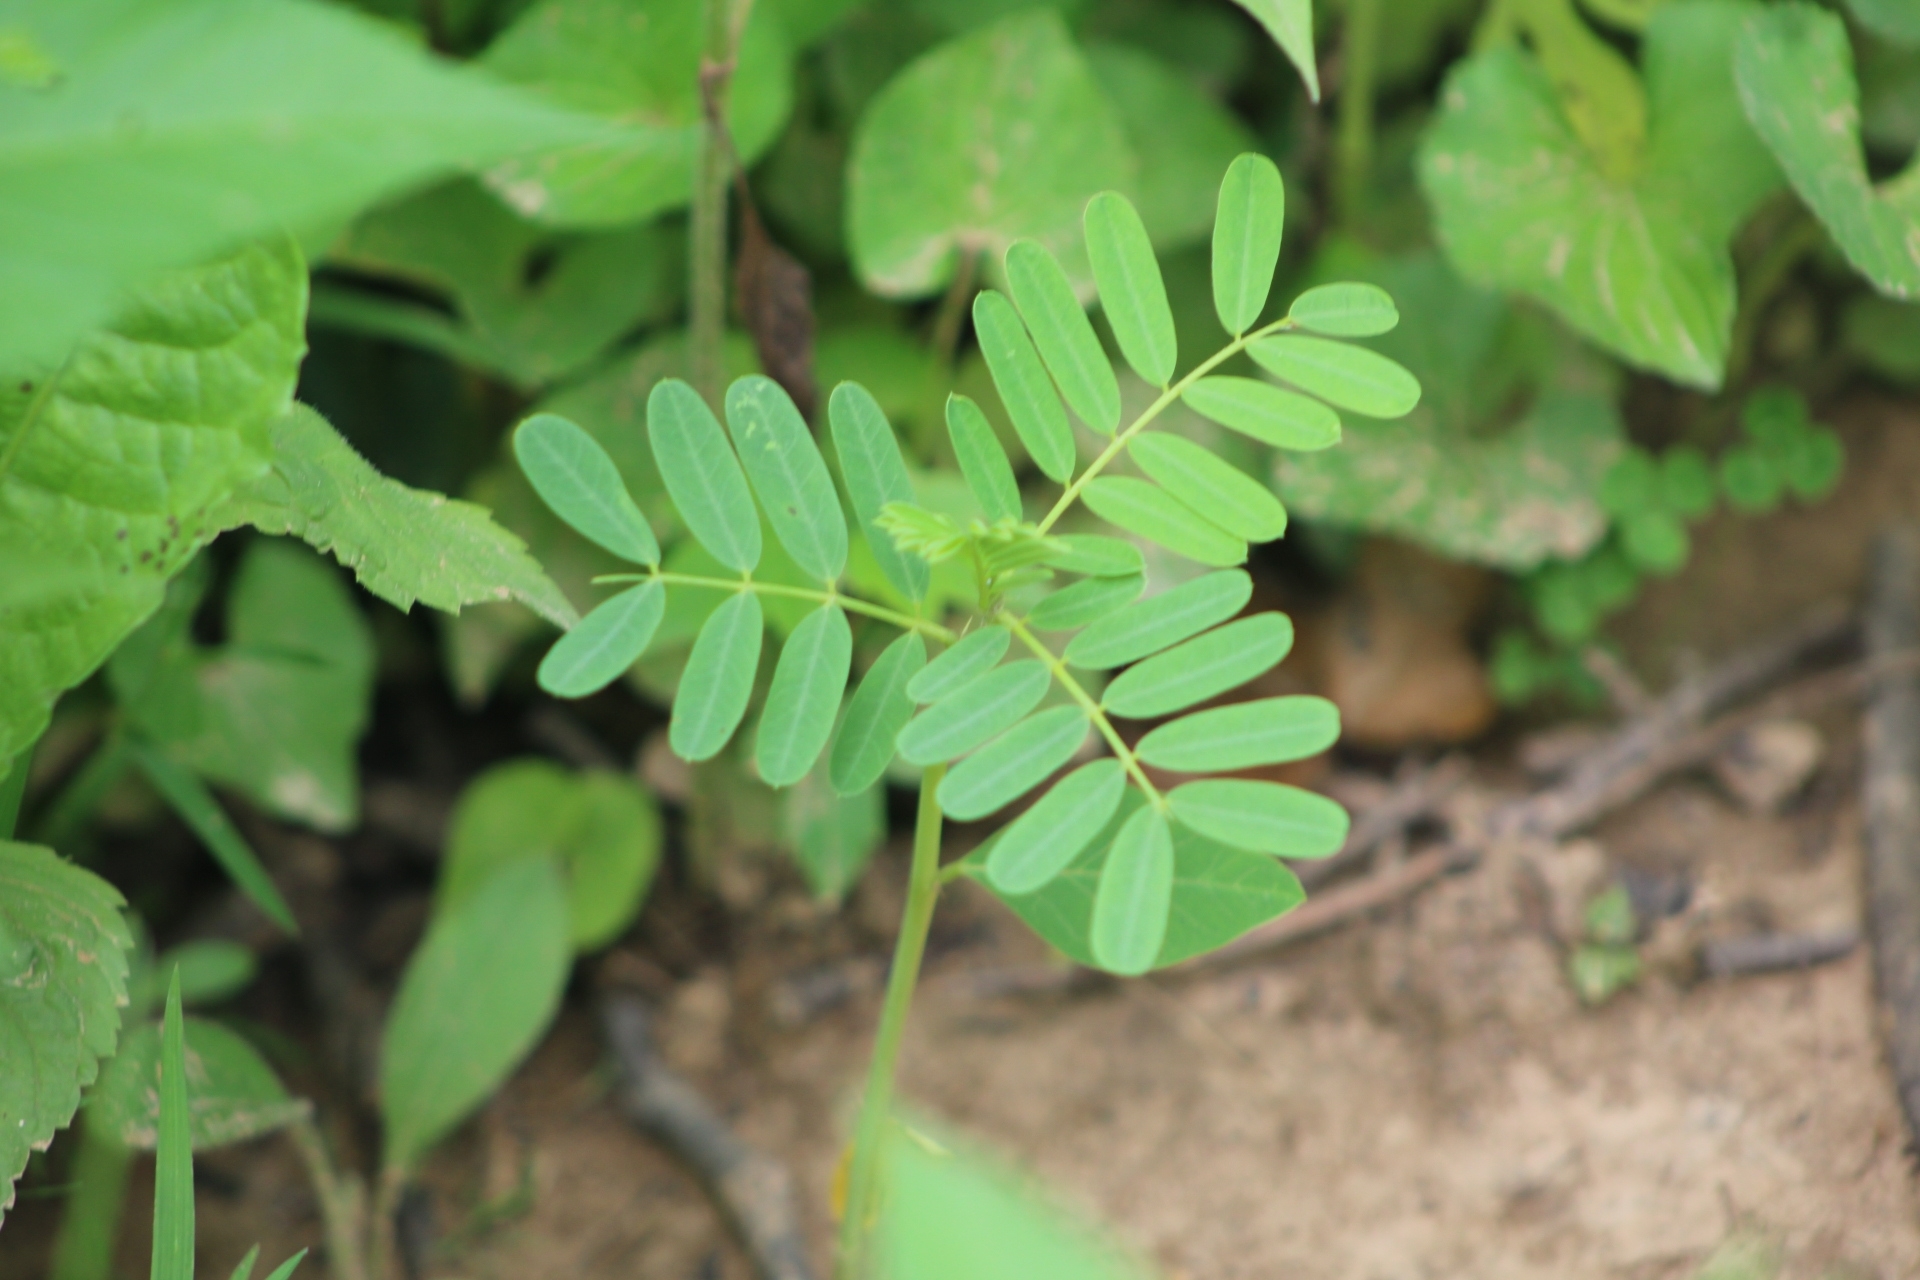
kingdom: Plantae
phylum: Tracheophyta
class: Magnoliopsida
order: Fabales
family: Fabaceae
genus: Coronilla
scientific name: Coronilla varia
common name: Crownvetch
